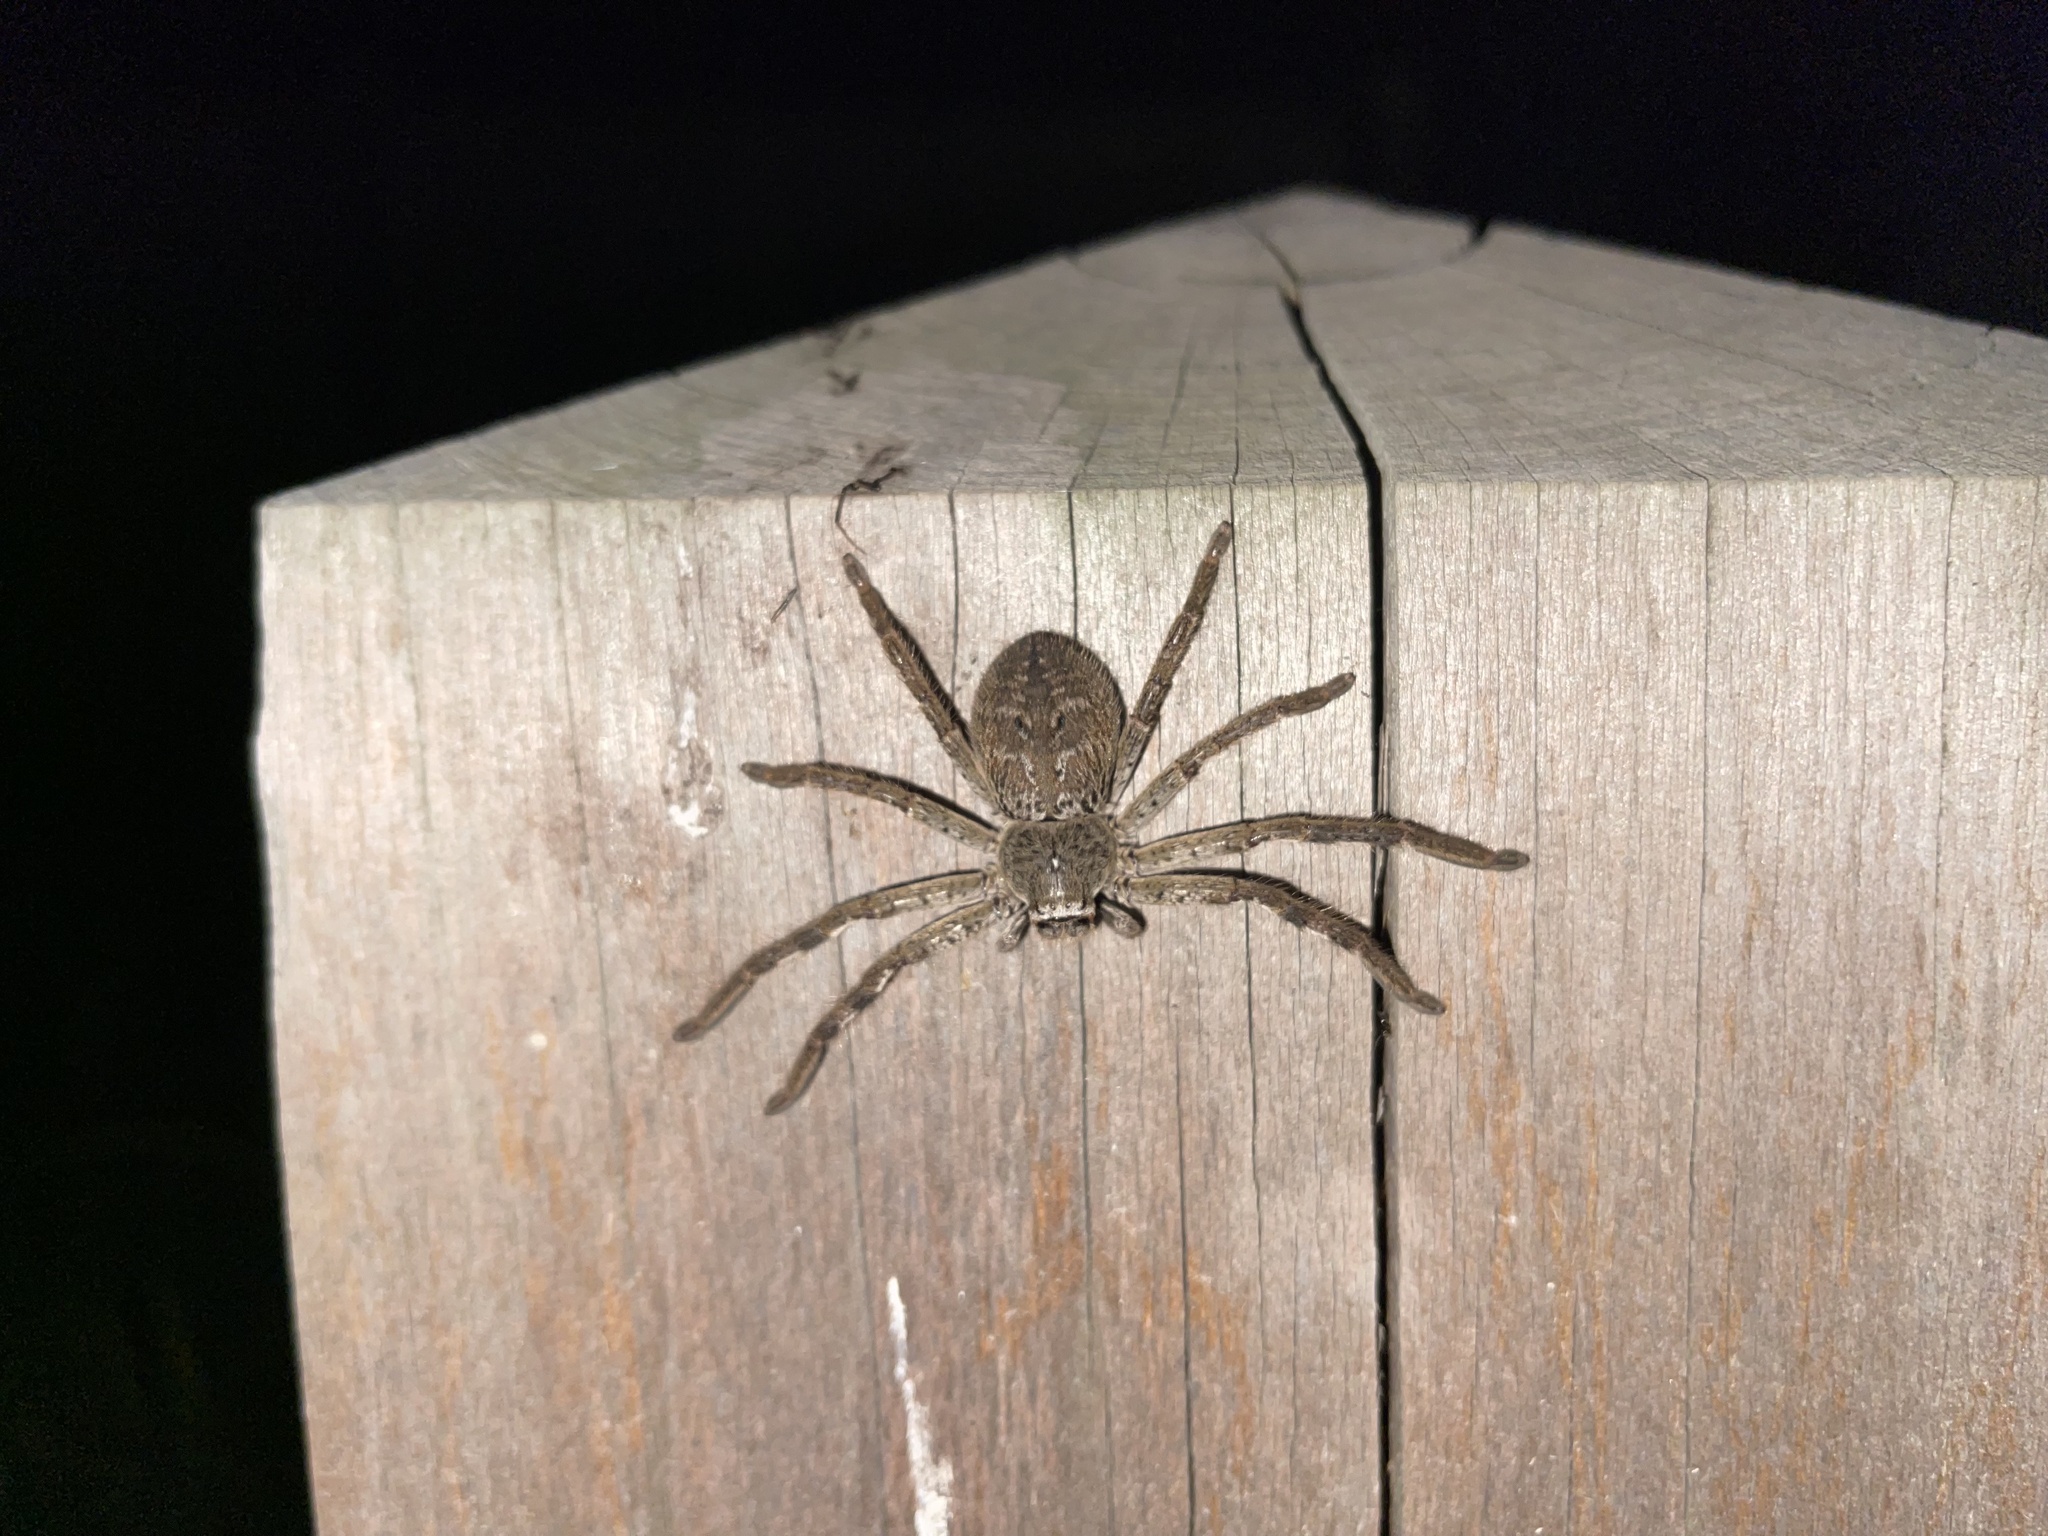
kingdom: Animalia
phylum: Arthropoda
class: Arachnida
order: Araneae
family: Sparassidae
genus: Isopedella
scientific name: Isopedella victorialis
